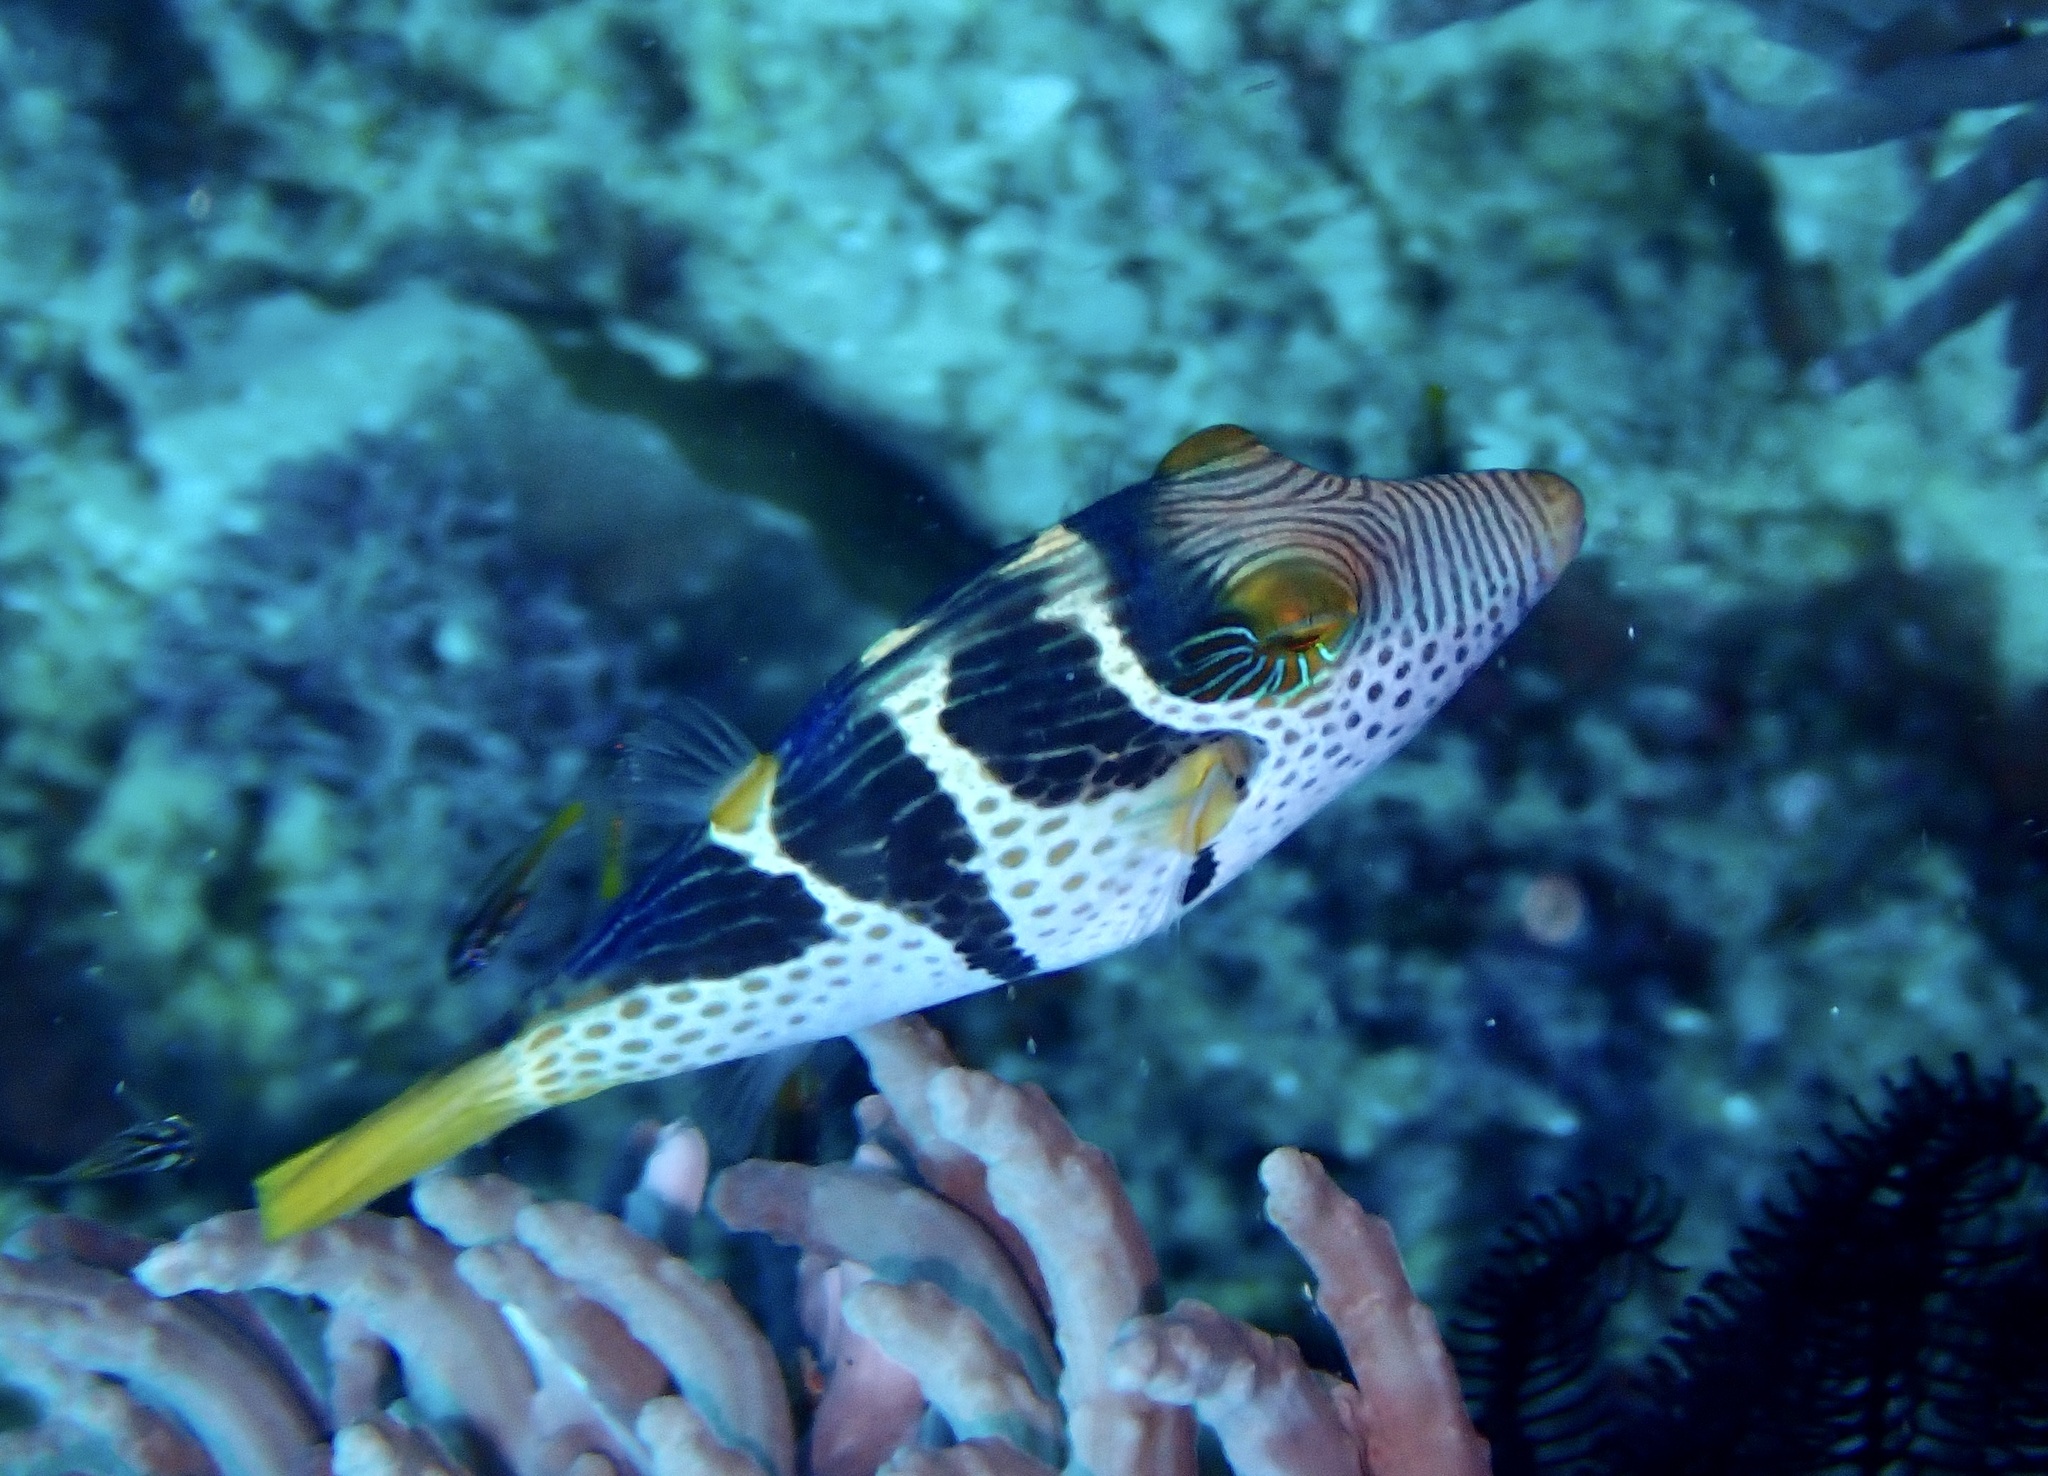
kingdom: Animalia
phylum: Chordata
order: Tetraodontiformes
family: Tetraodontidae
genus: Canthigaster
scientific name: Canthigaster valentini
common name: Banded toby
